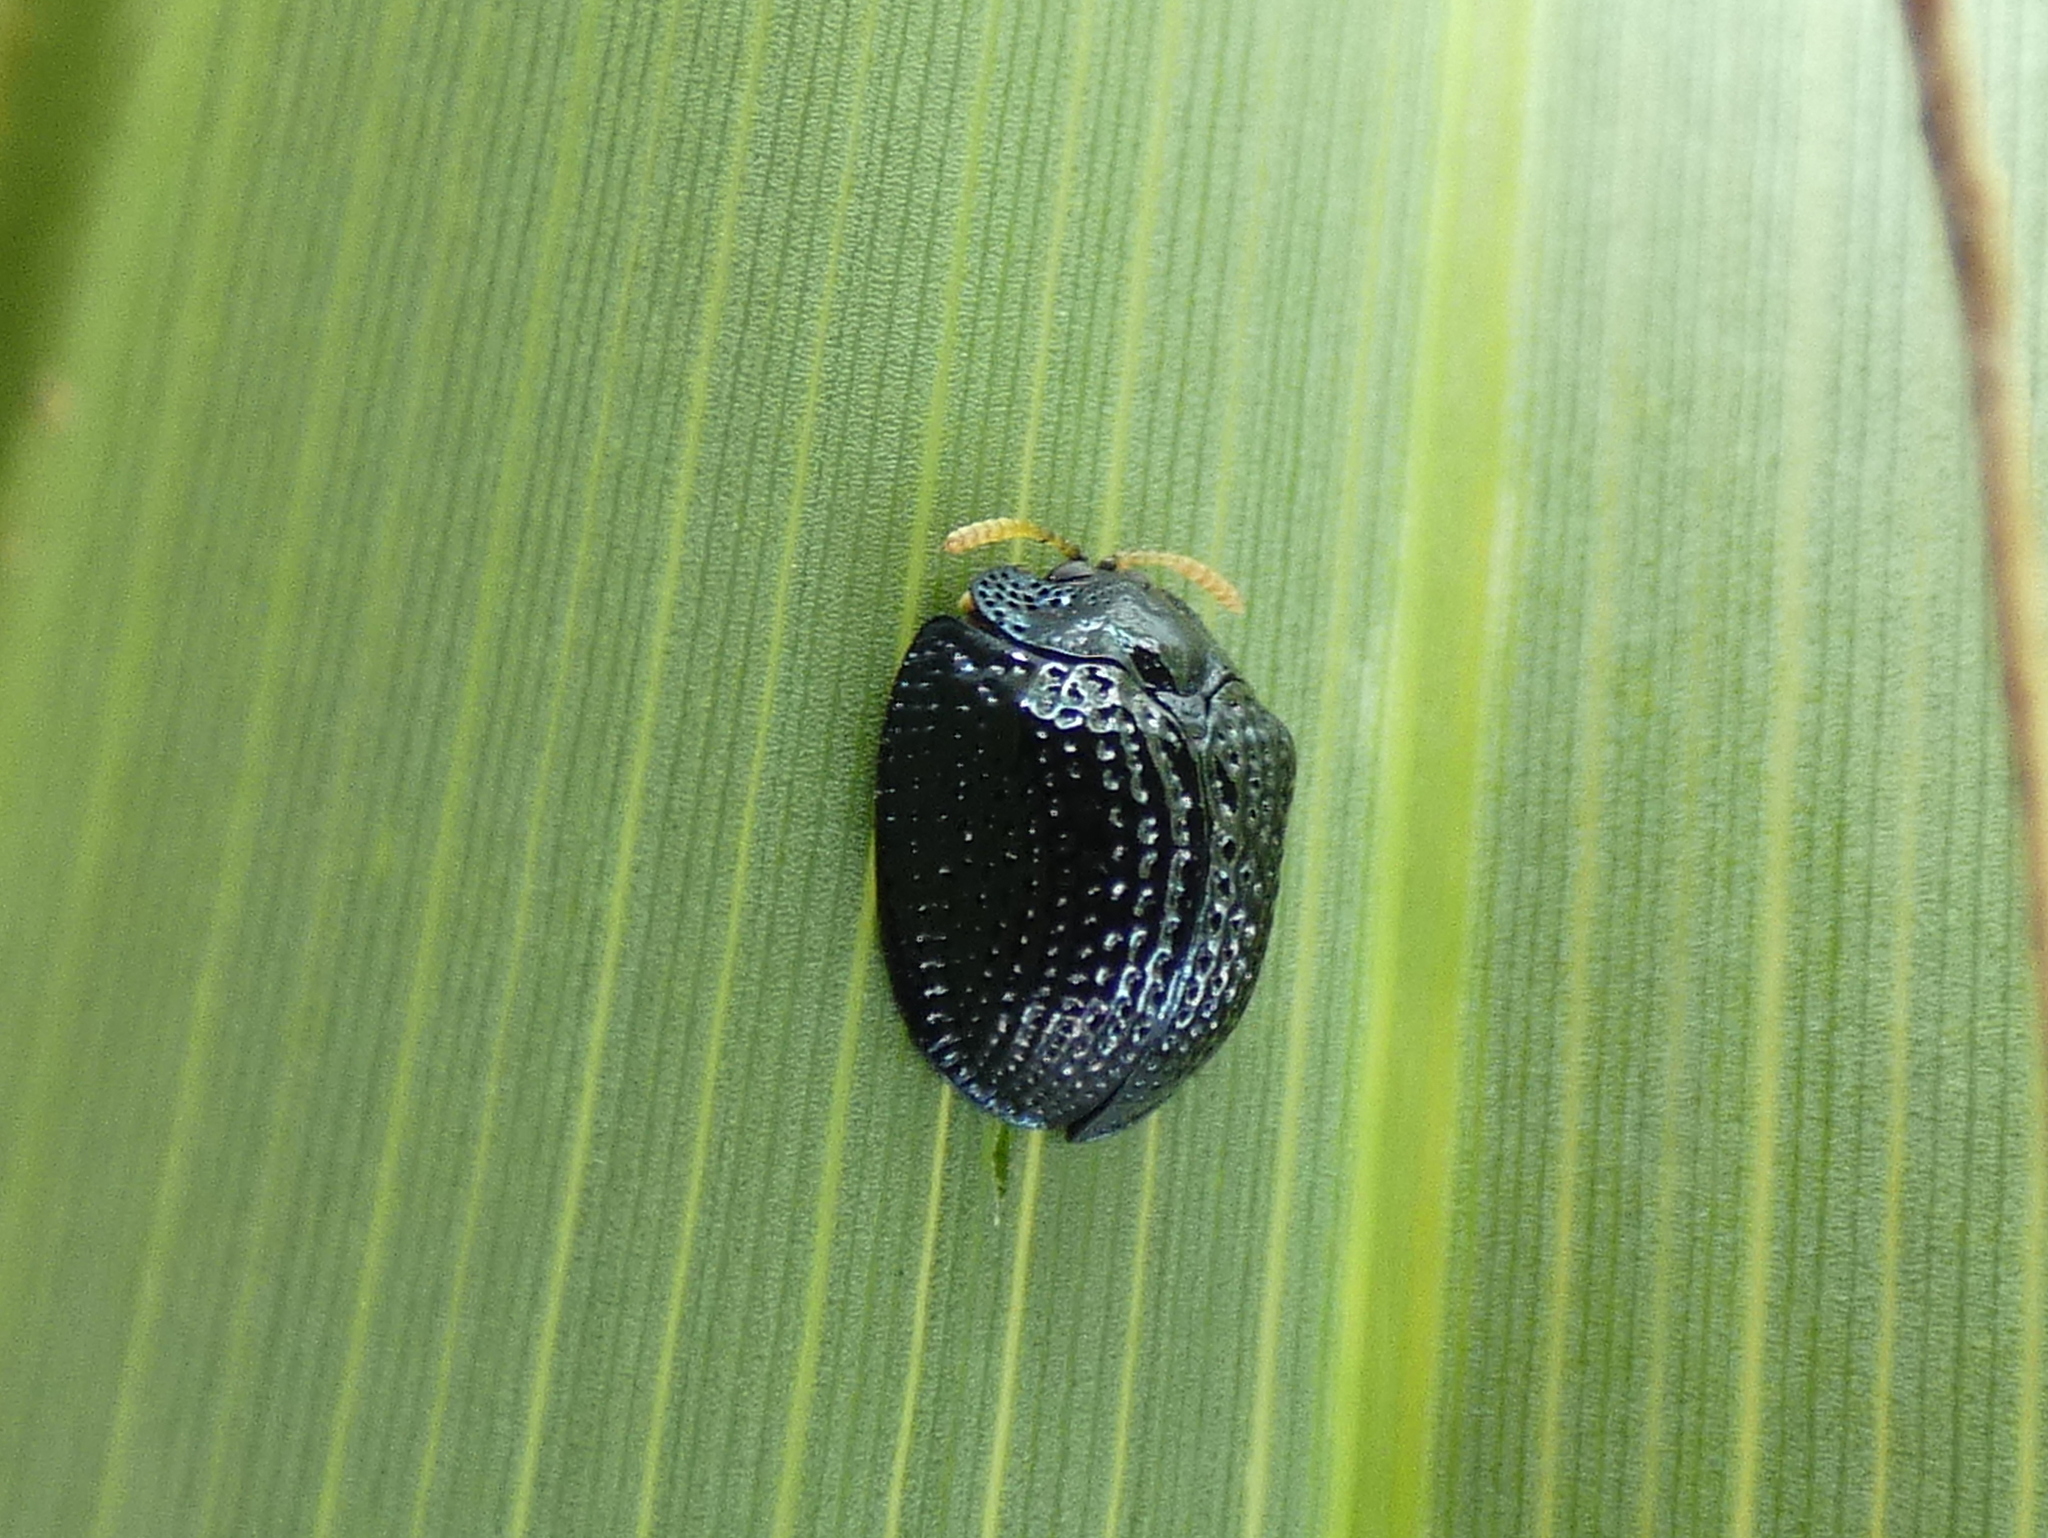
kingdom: Animalia
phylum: Arthropoda
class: Insecta
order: Coleoptera
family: Chrysomelidae
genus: Hemisphaerota
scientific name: Hemisphaerota cyanea
